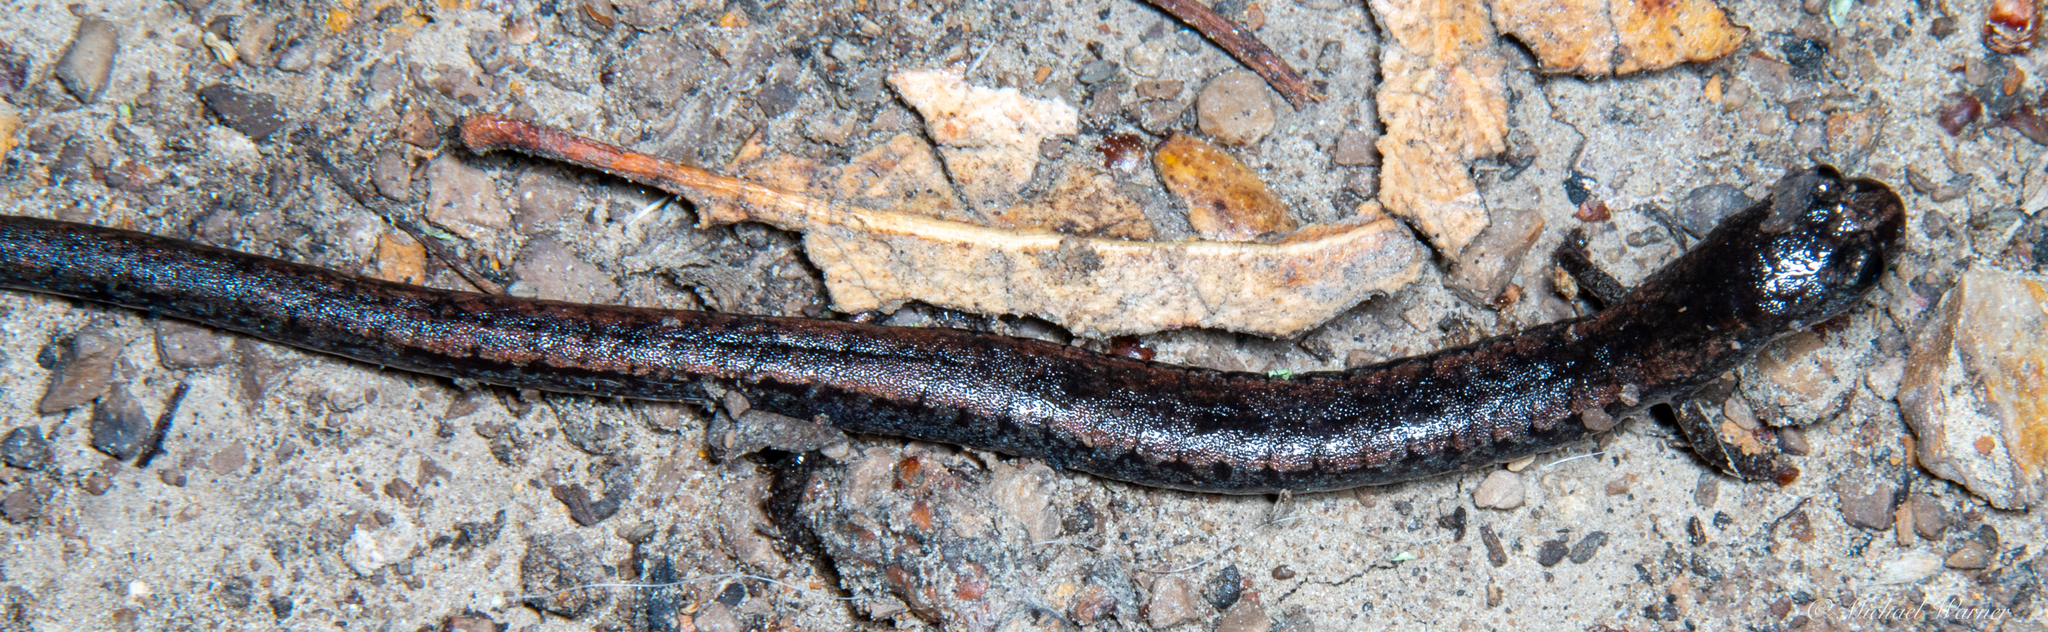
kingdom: Animalia
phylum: Chordata
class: Amphibia
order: Caudata
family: Plethodontidae
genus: Batrachoseps
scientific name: Batrachoseps attenuatus
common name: California slender salamander
